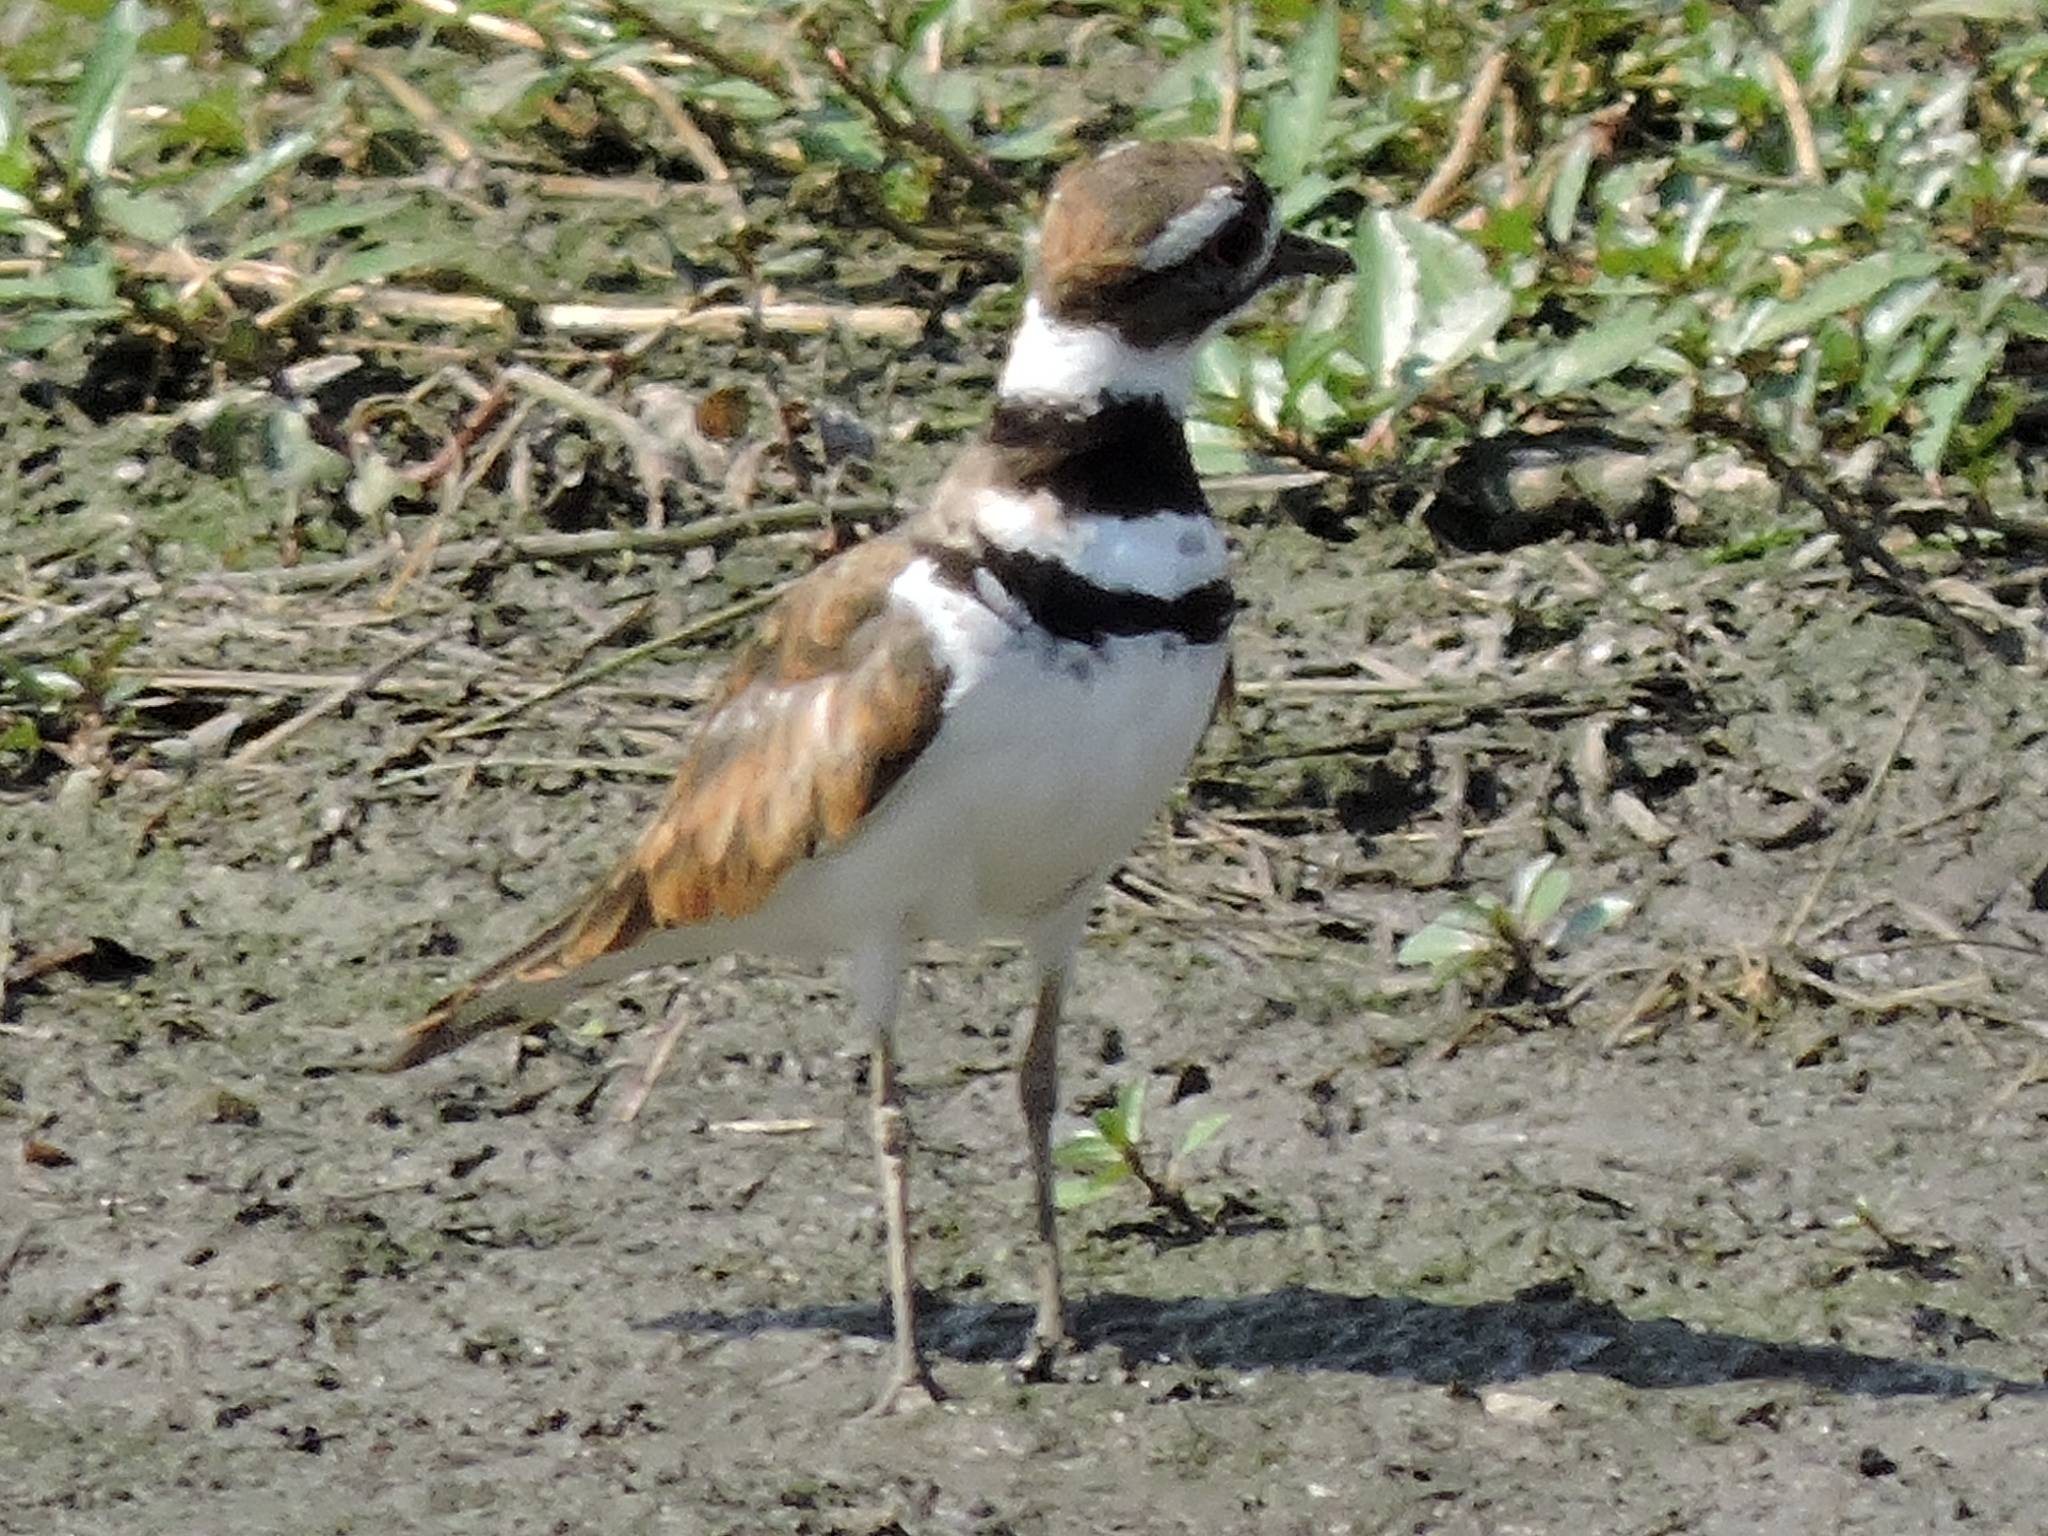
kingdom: Animalia
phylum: Chordata
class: Aves
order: Charadriiformes
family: Charadriidae
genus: Charadrius
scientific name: Charadrius vociferus
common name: Killdeer
